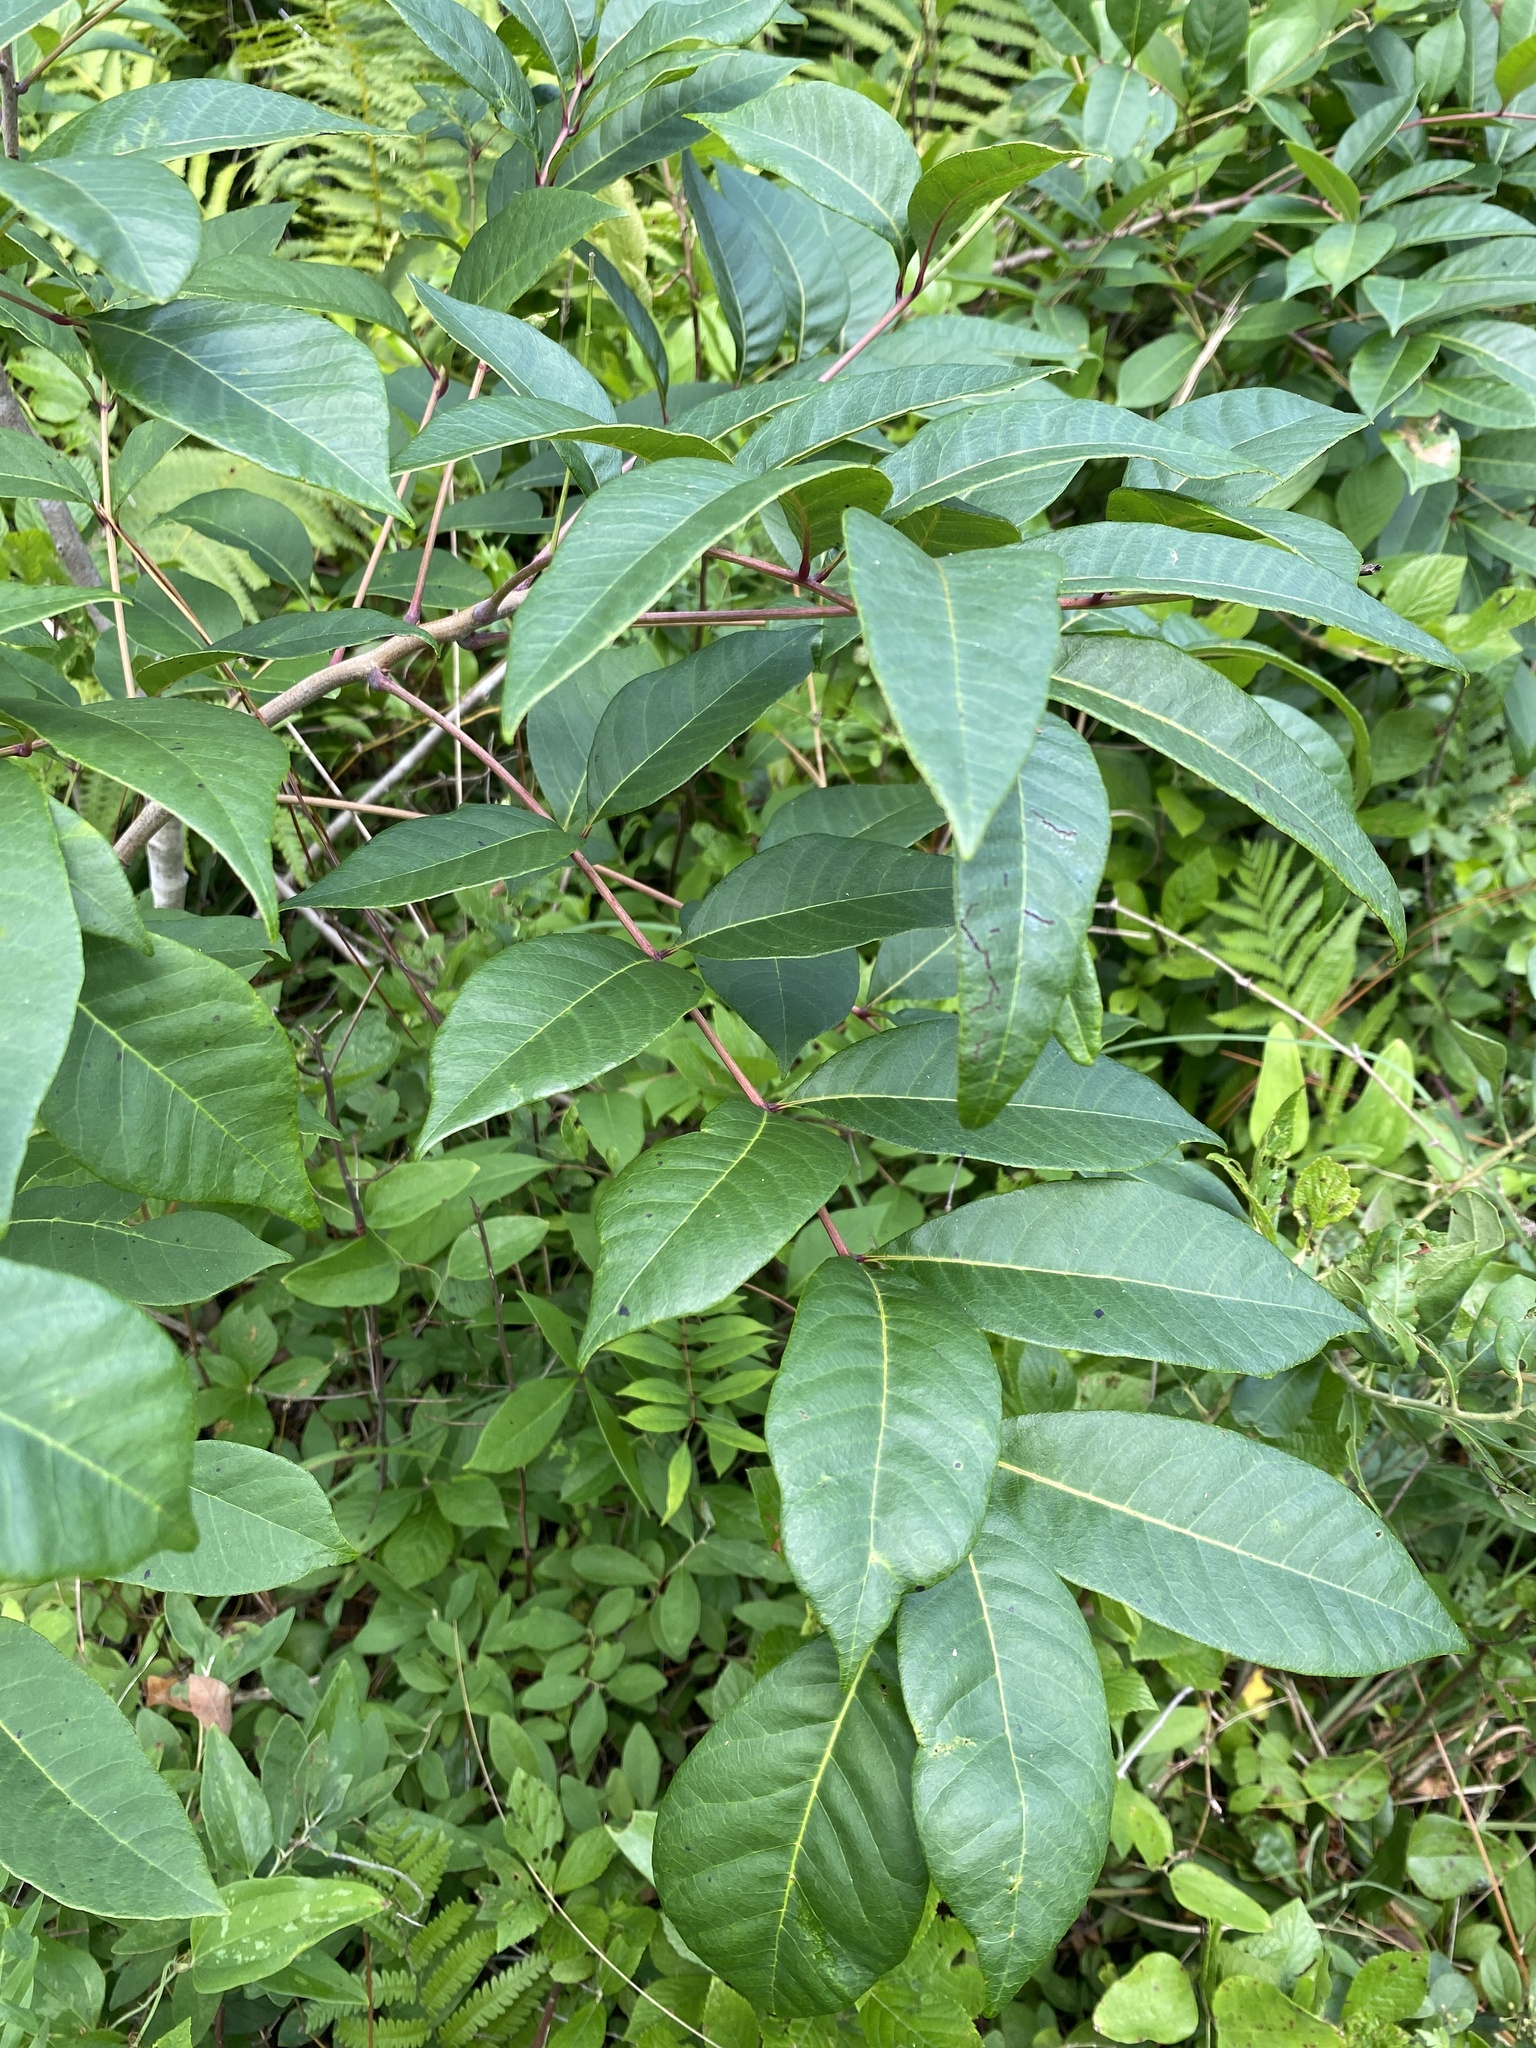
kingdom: Plantae
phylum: Tracheophyta
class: Magnoliopsida
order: Sapindales
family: Anacardiaceae
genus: Toxicodendron
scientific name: Toxicodendron vernix
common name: Poison sumac
